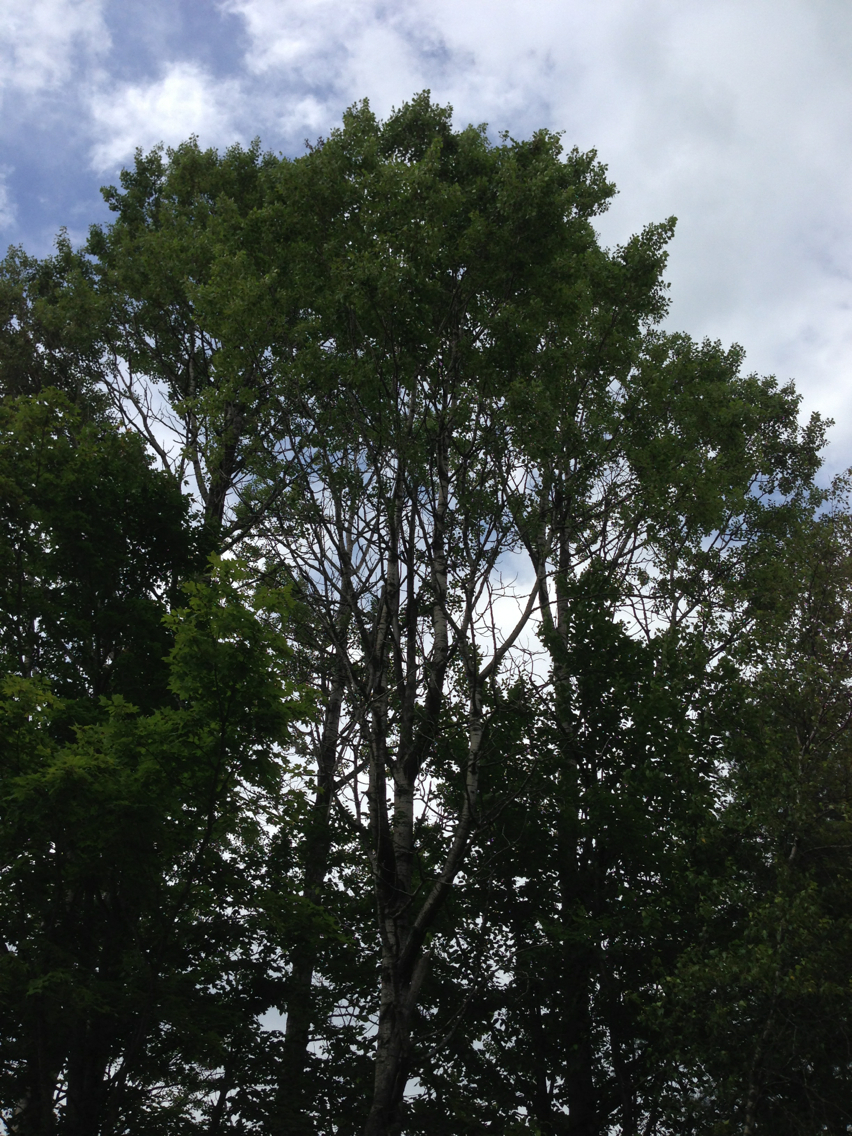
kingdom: Plantae
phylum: Tracheophyta
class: Magnoliopsida
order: Malpighiales
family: Salicaceae
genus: Populus
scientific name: Populus tremuloides
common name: Quaking aspen
